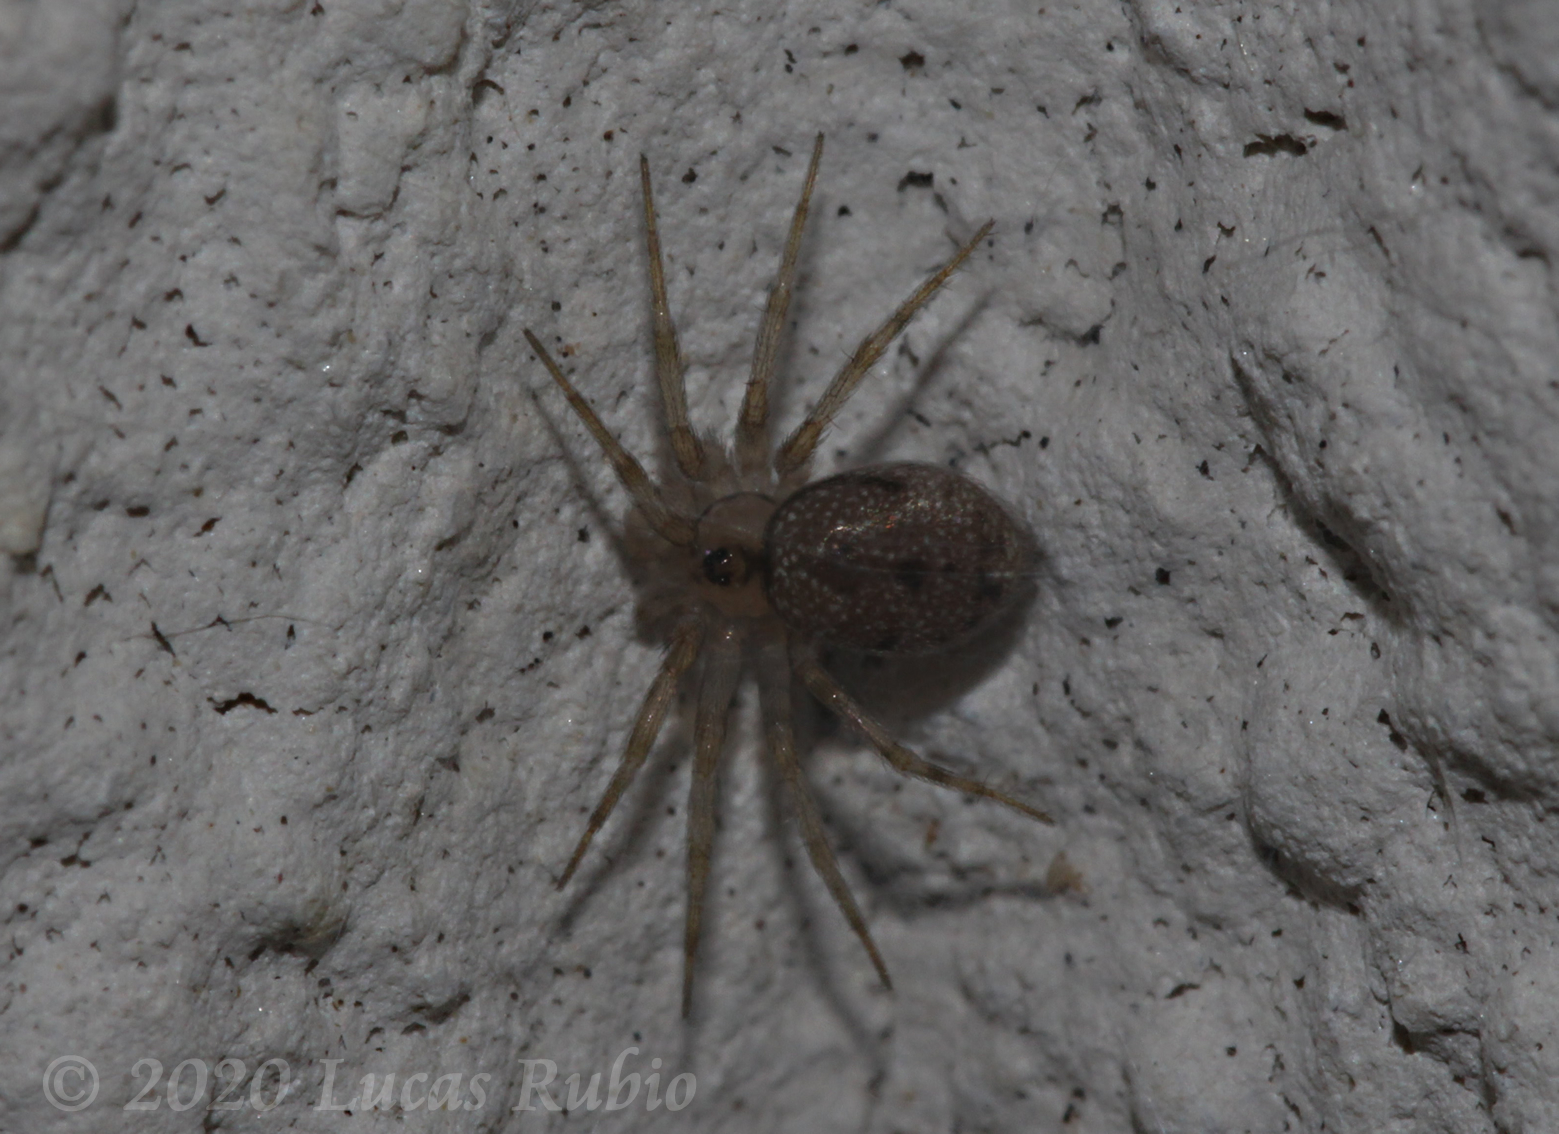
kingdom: Animalia
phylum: Arthropoda
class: Arachnida
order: Araneae
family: Oecobiidae
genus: Oecobius
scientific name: Oecobius navus
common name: Flatmesh weaver
